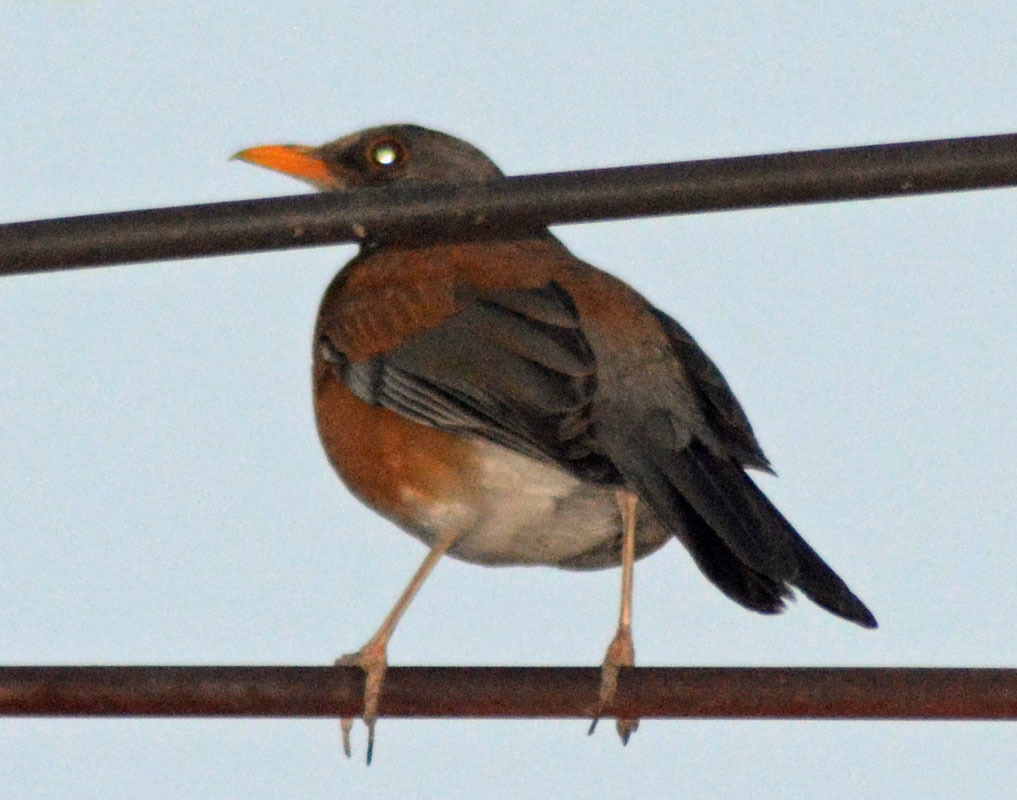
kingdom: Animalia
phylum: Chordata
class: Aves
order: Passeriformes
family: Turdidae
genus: Turdus
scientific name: Turdus rufopalliatus
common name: Rufous-backed robin
